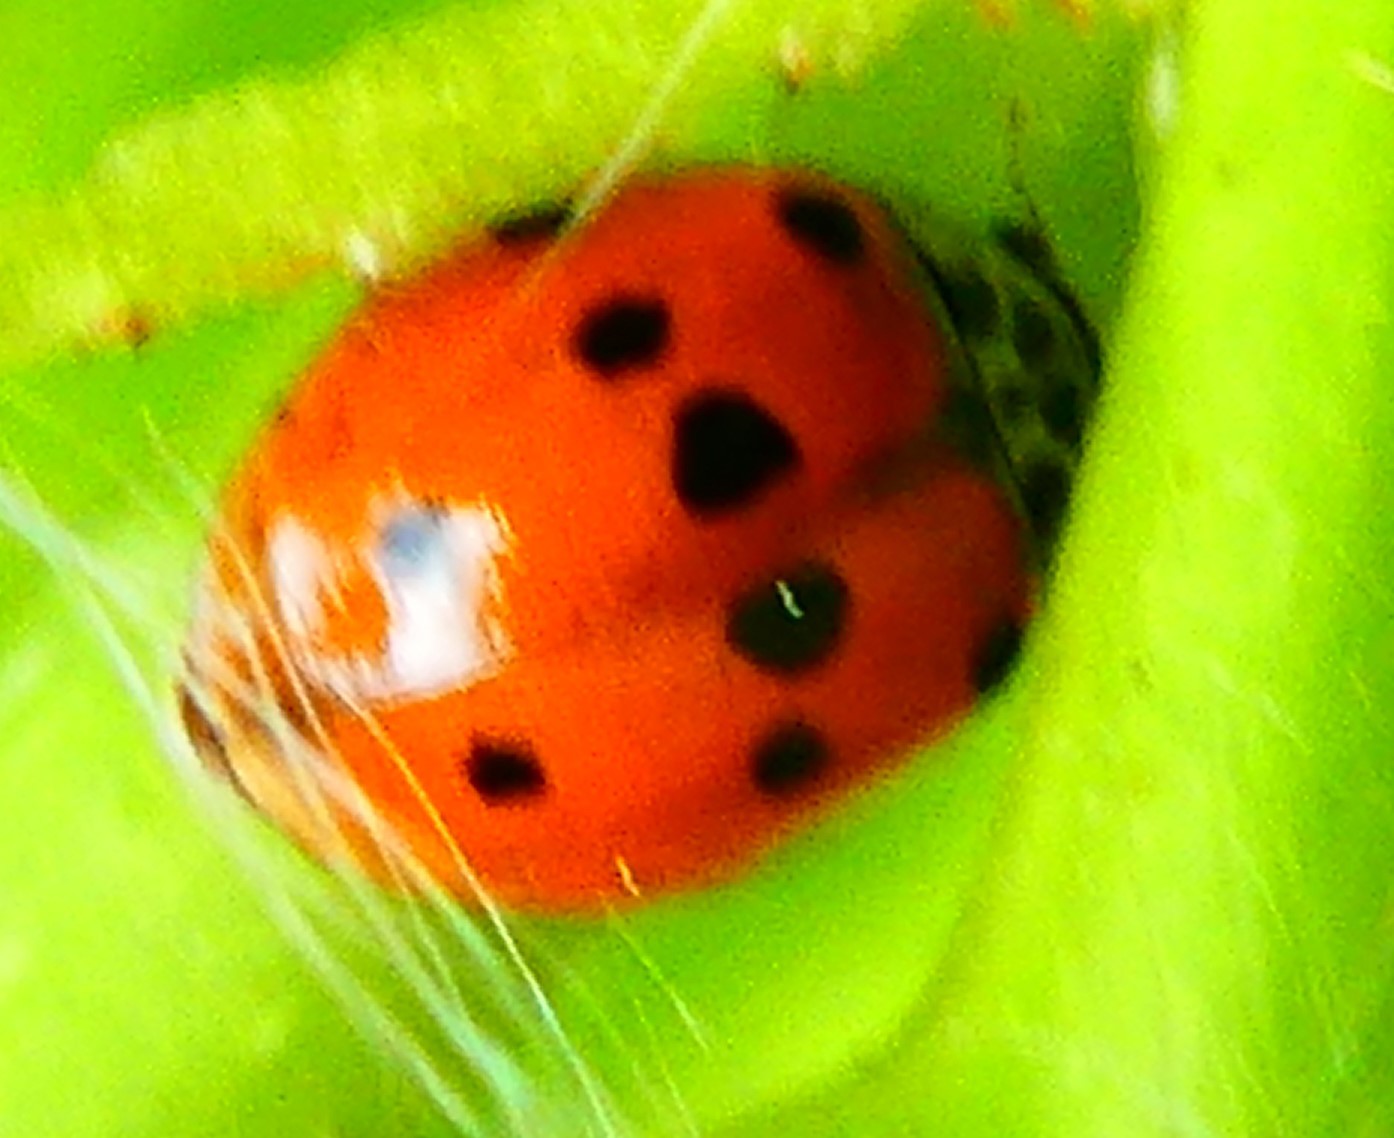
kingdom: Animalia
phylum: Arthropoda
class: Insecta
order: Coleoptera
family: Coccinellidae
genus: Adalia
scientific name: Adalia decempunctata
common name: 10-spot ladybird
